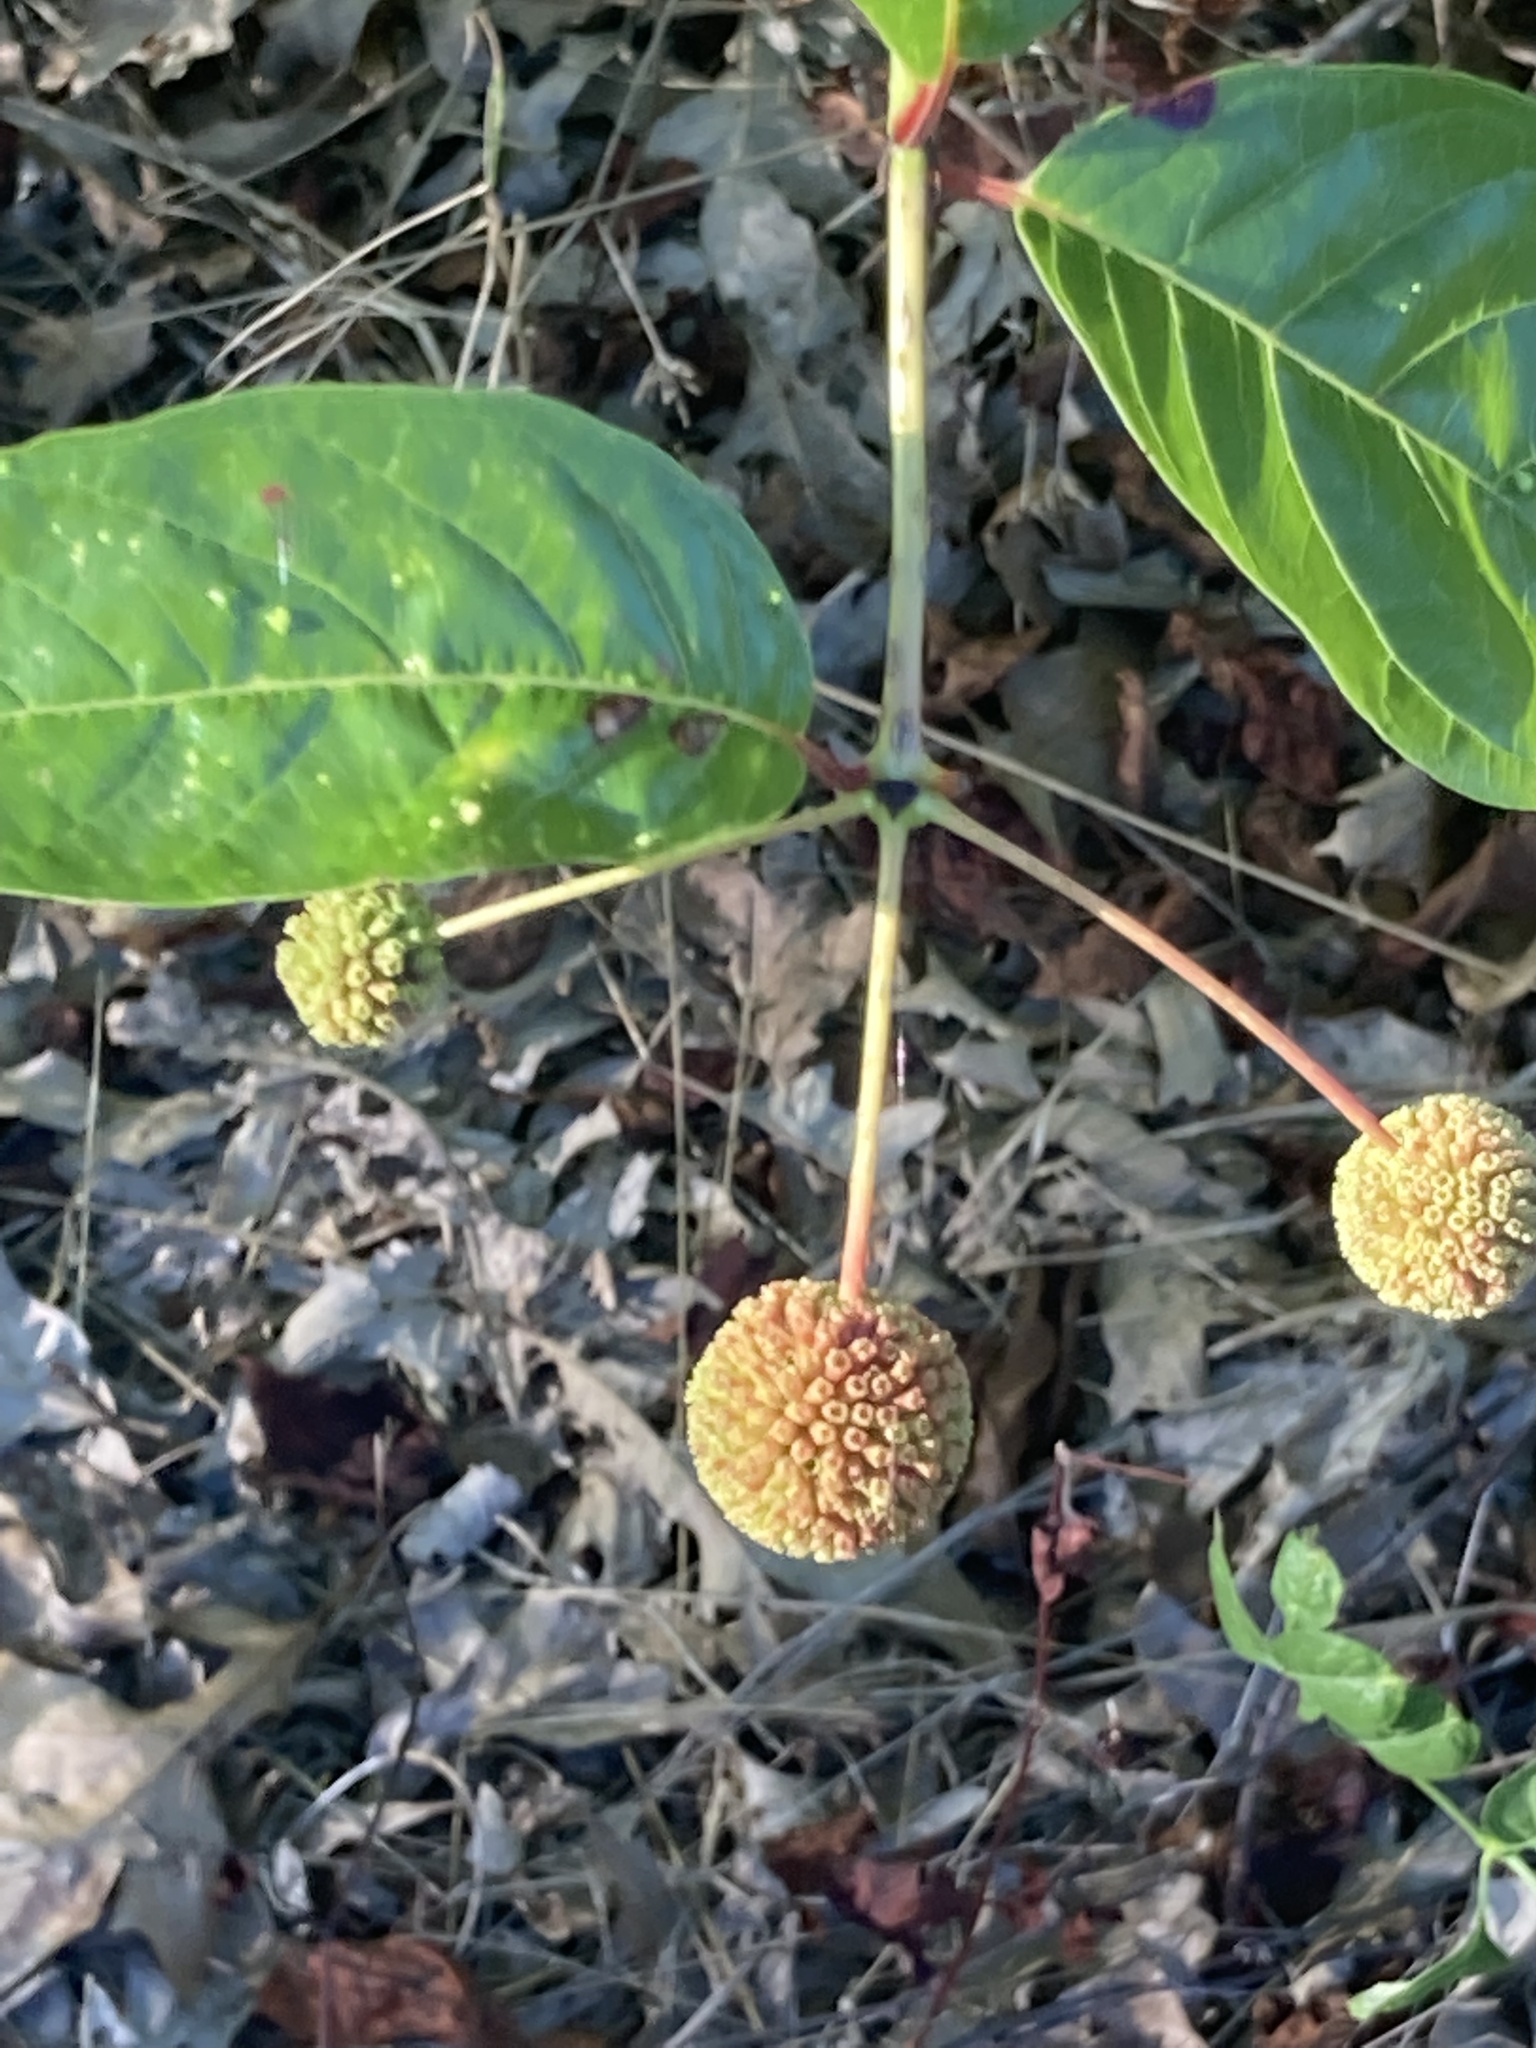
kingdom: Plantae
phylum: Tracheophyta
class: Magnoliopsida
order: Gentianales
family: Rubiaceae
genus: Cephalanthus
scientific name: Cephalanthus occidentalis
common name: Button-willow
